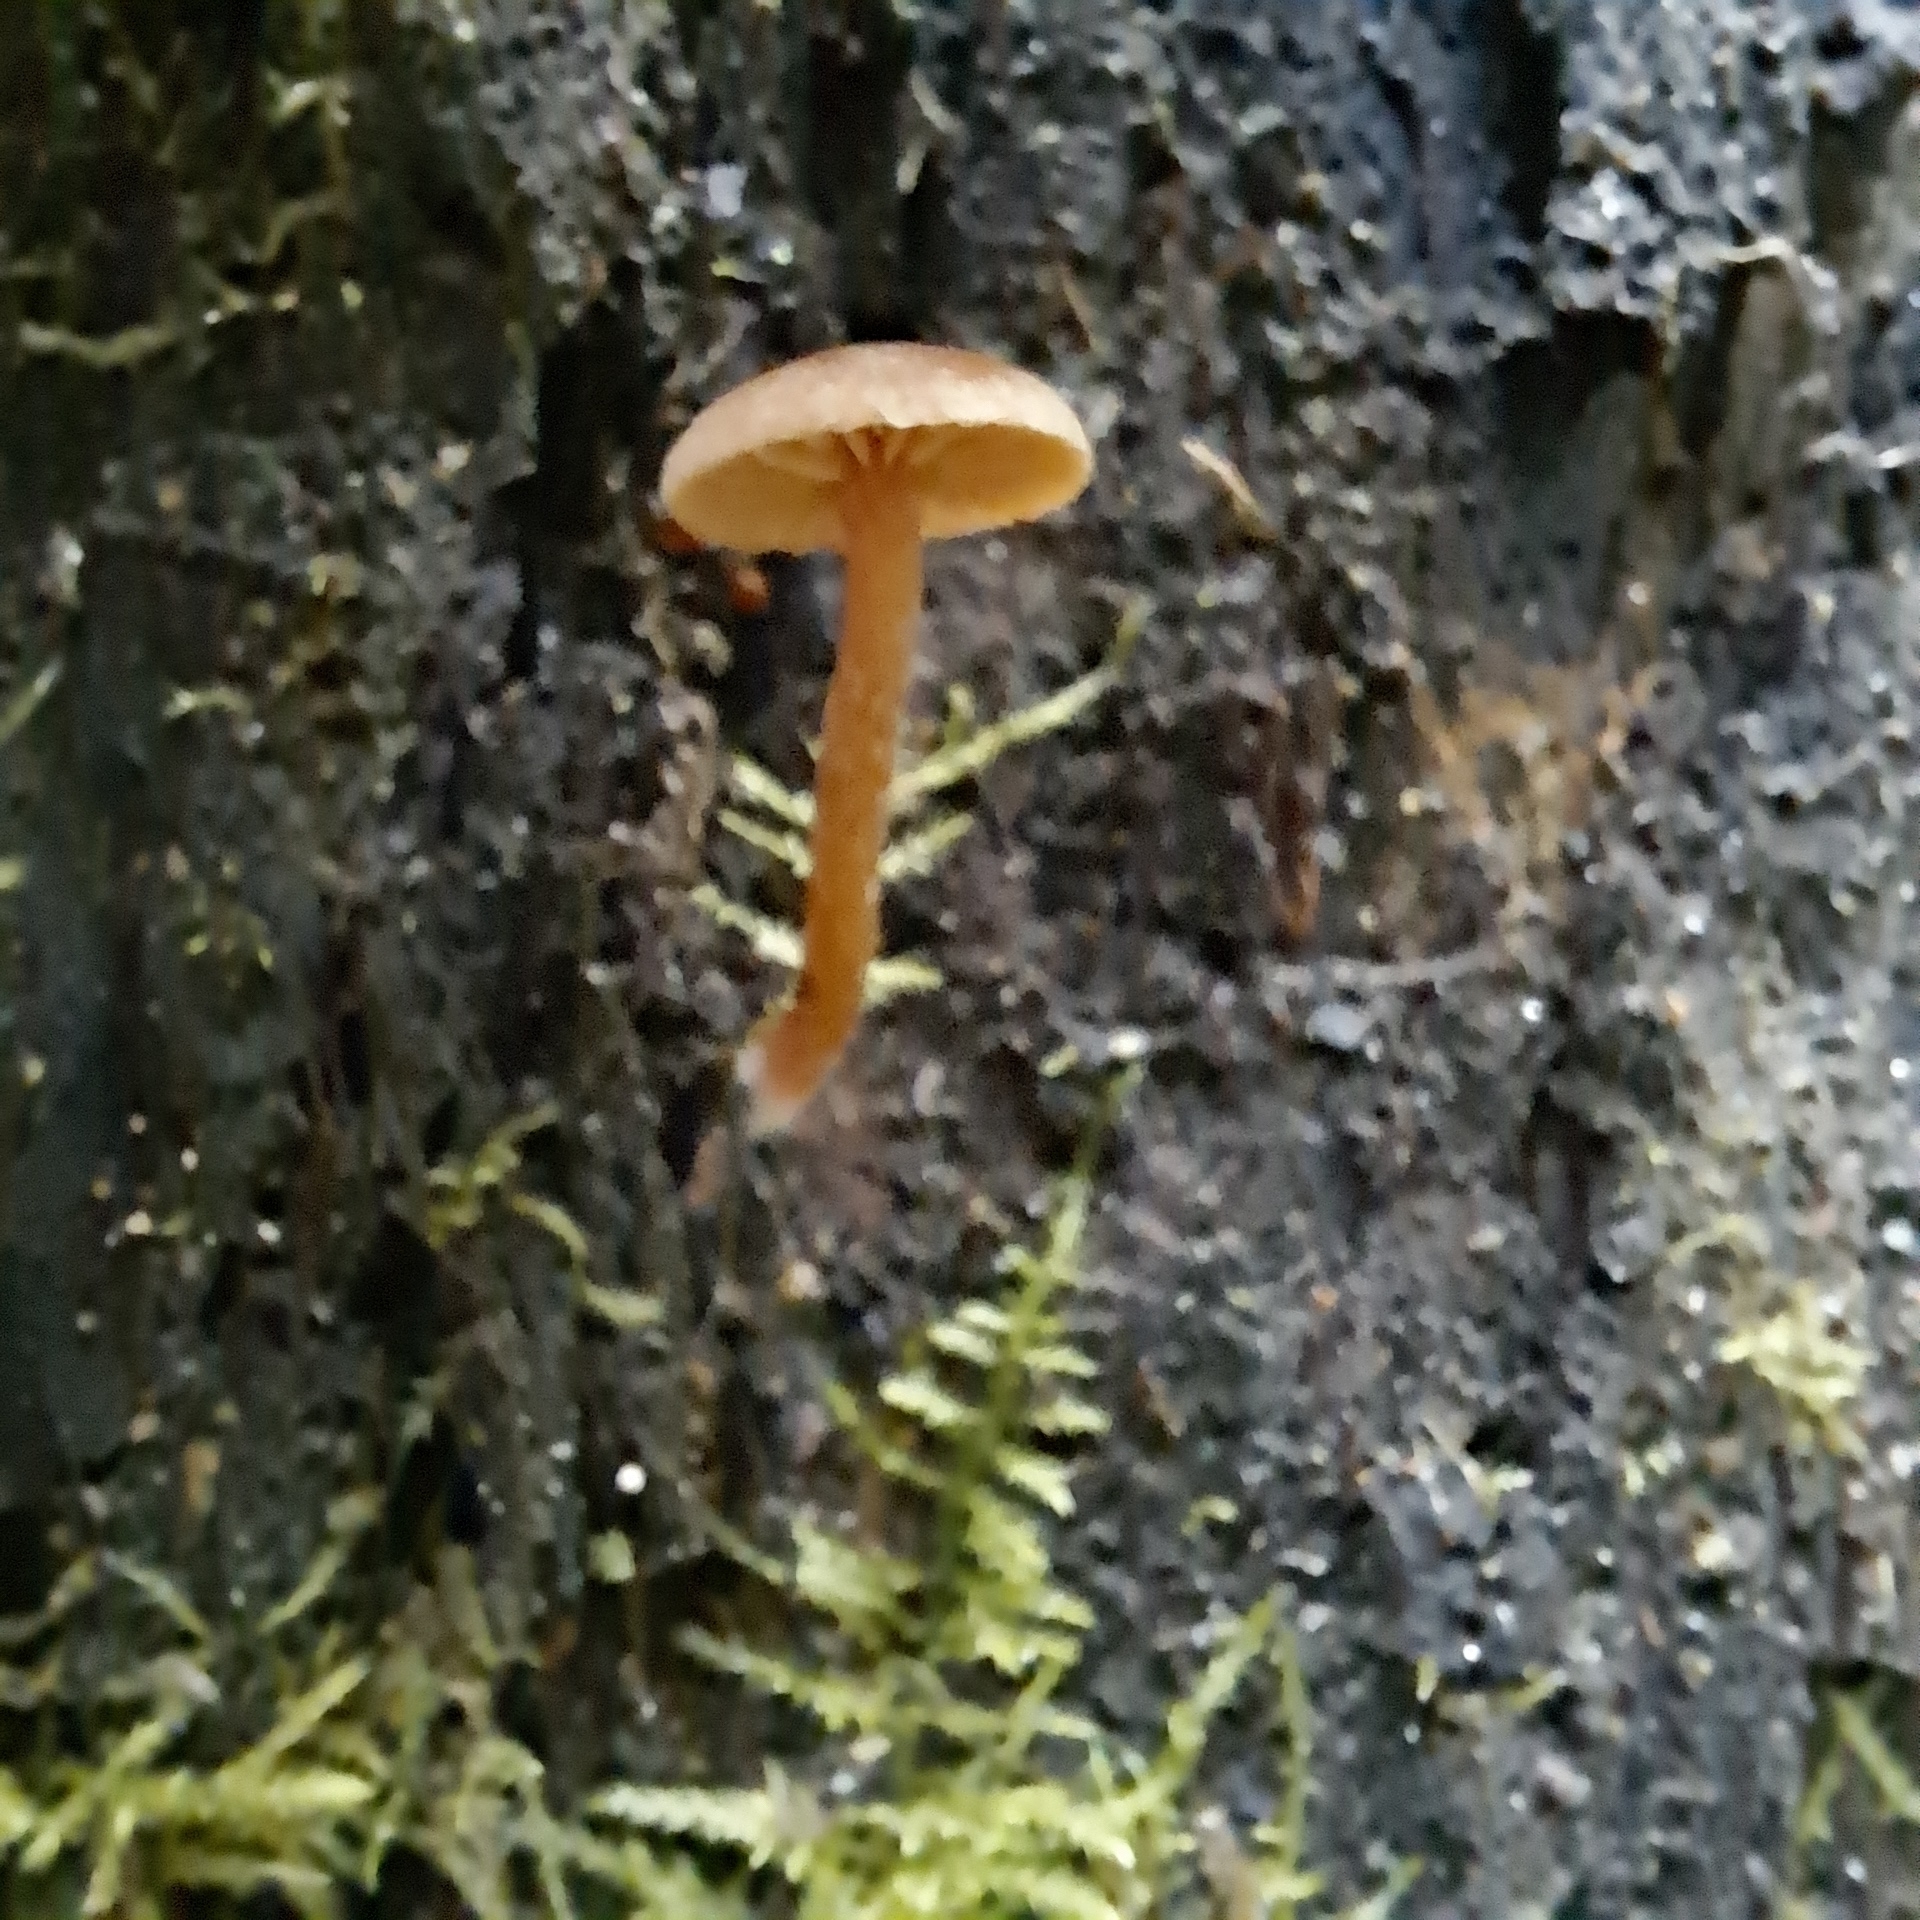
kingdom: Fungi
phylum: Basidiomycota
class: Agaricomycetes
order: Agaricales
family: Mycenaceae
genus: Mycena
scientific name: Mycena acicula
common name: Orange bonnet
